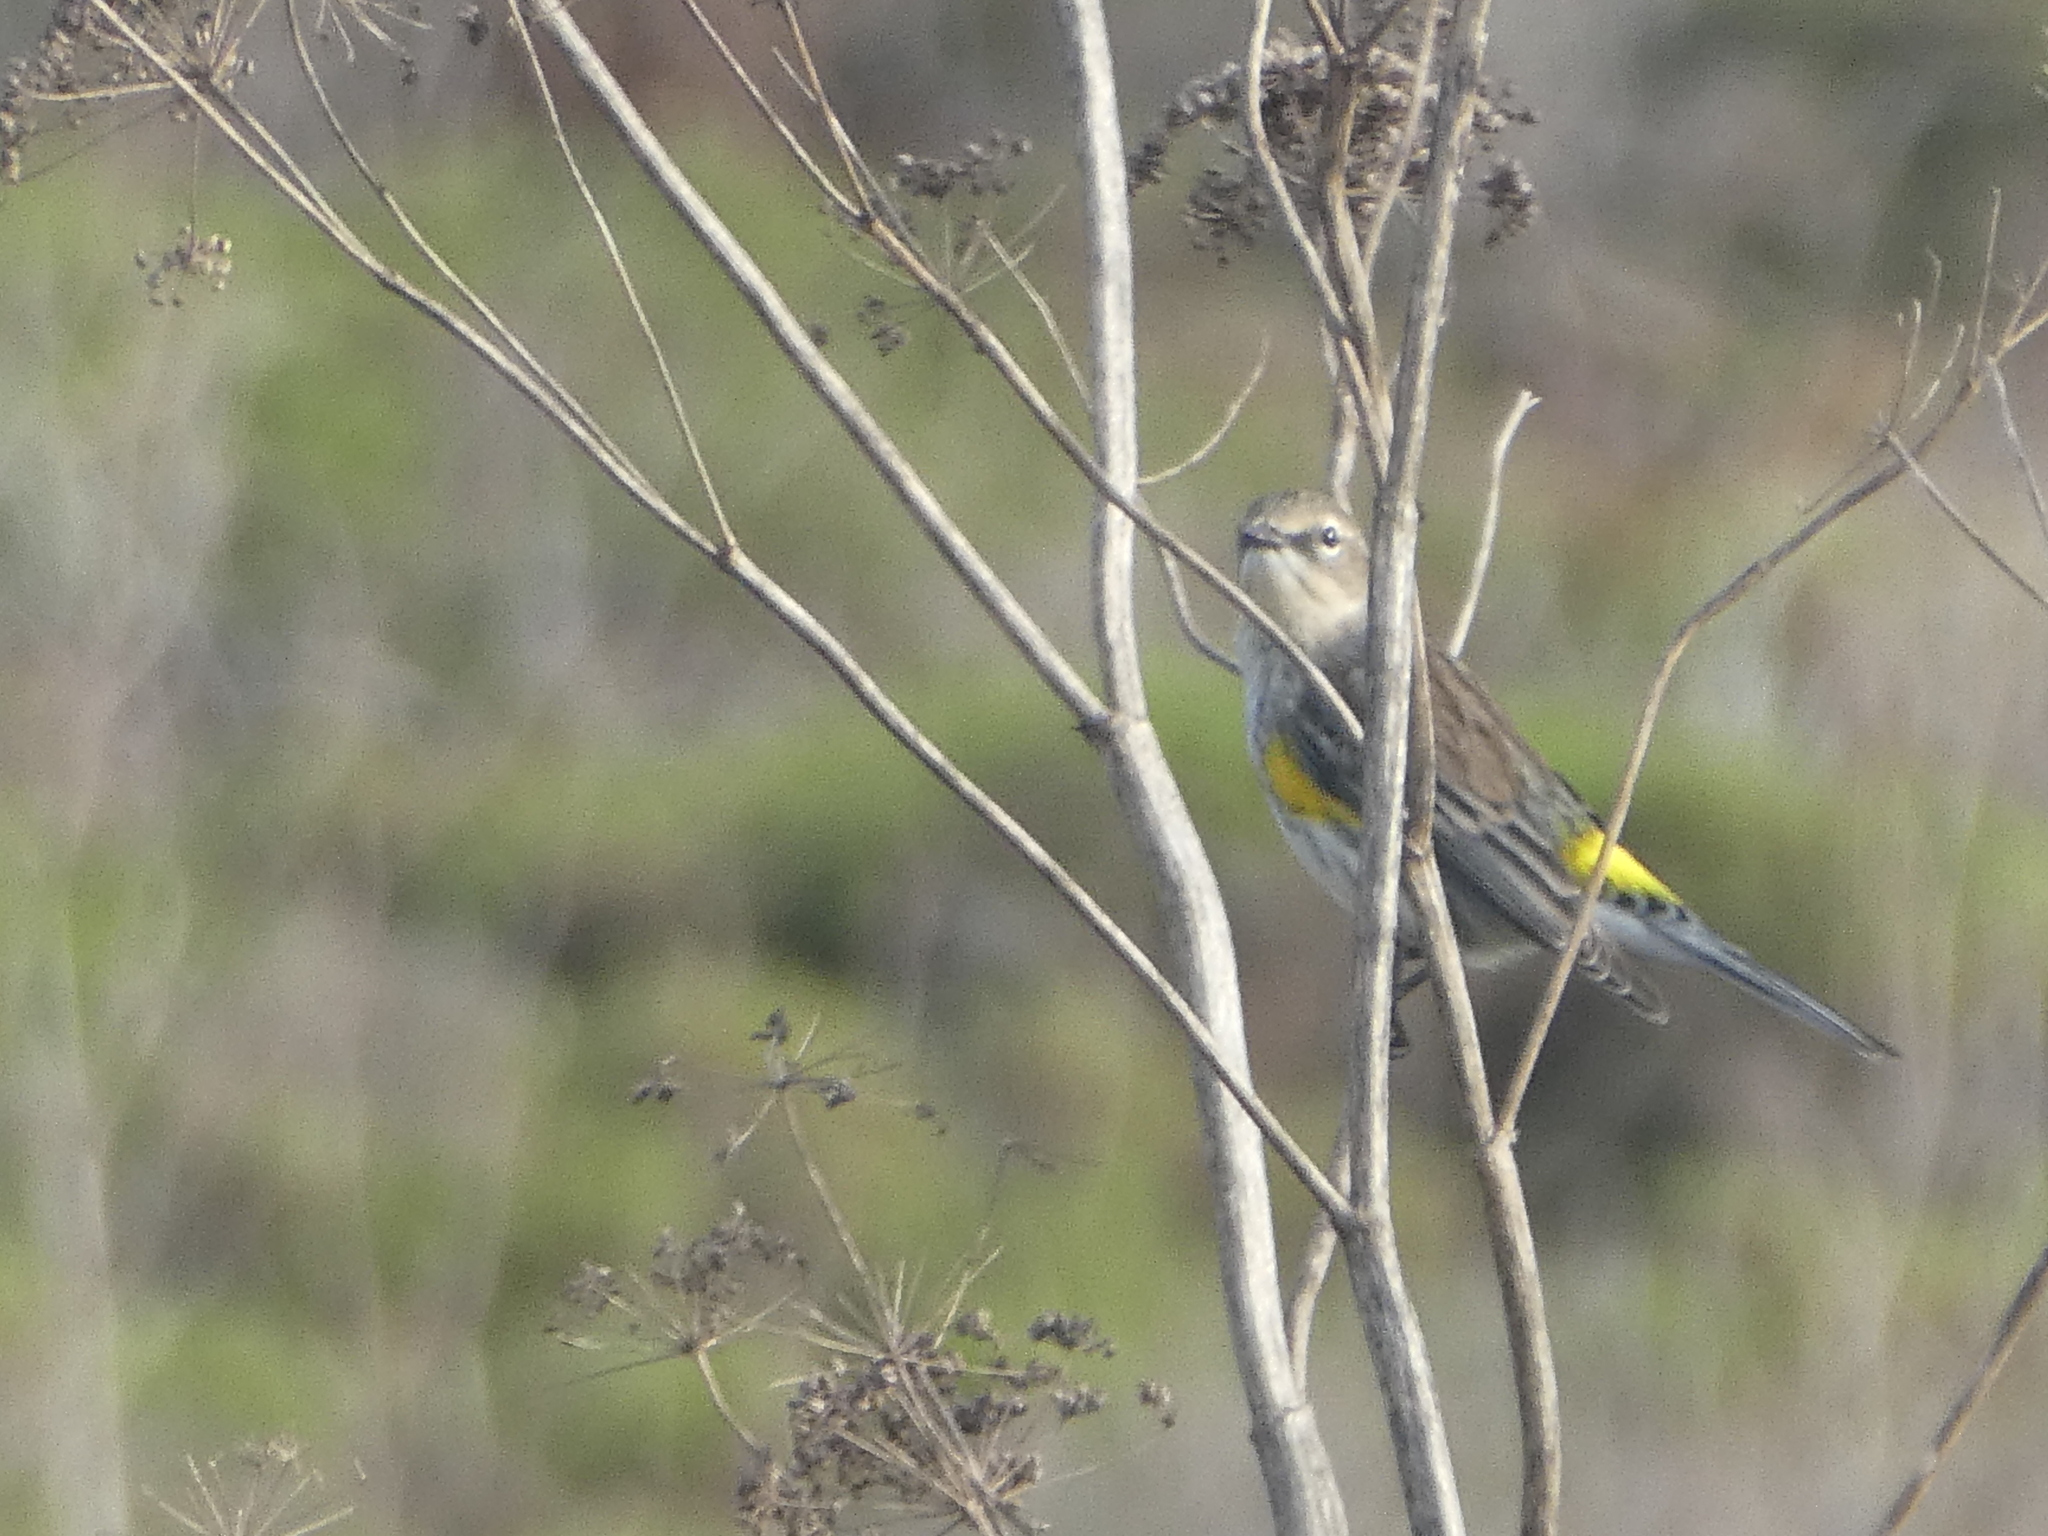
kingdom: Animalia
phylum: Chordata
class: Aves
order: Passeriformes
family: Parulidae
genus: Setophaga
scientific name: Setophaga coronata
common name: Myrtle warbler
